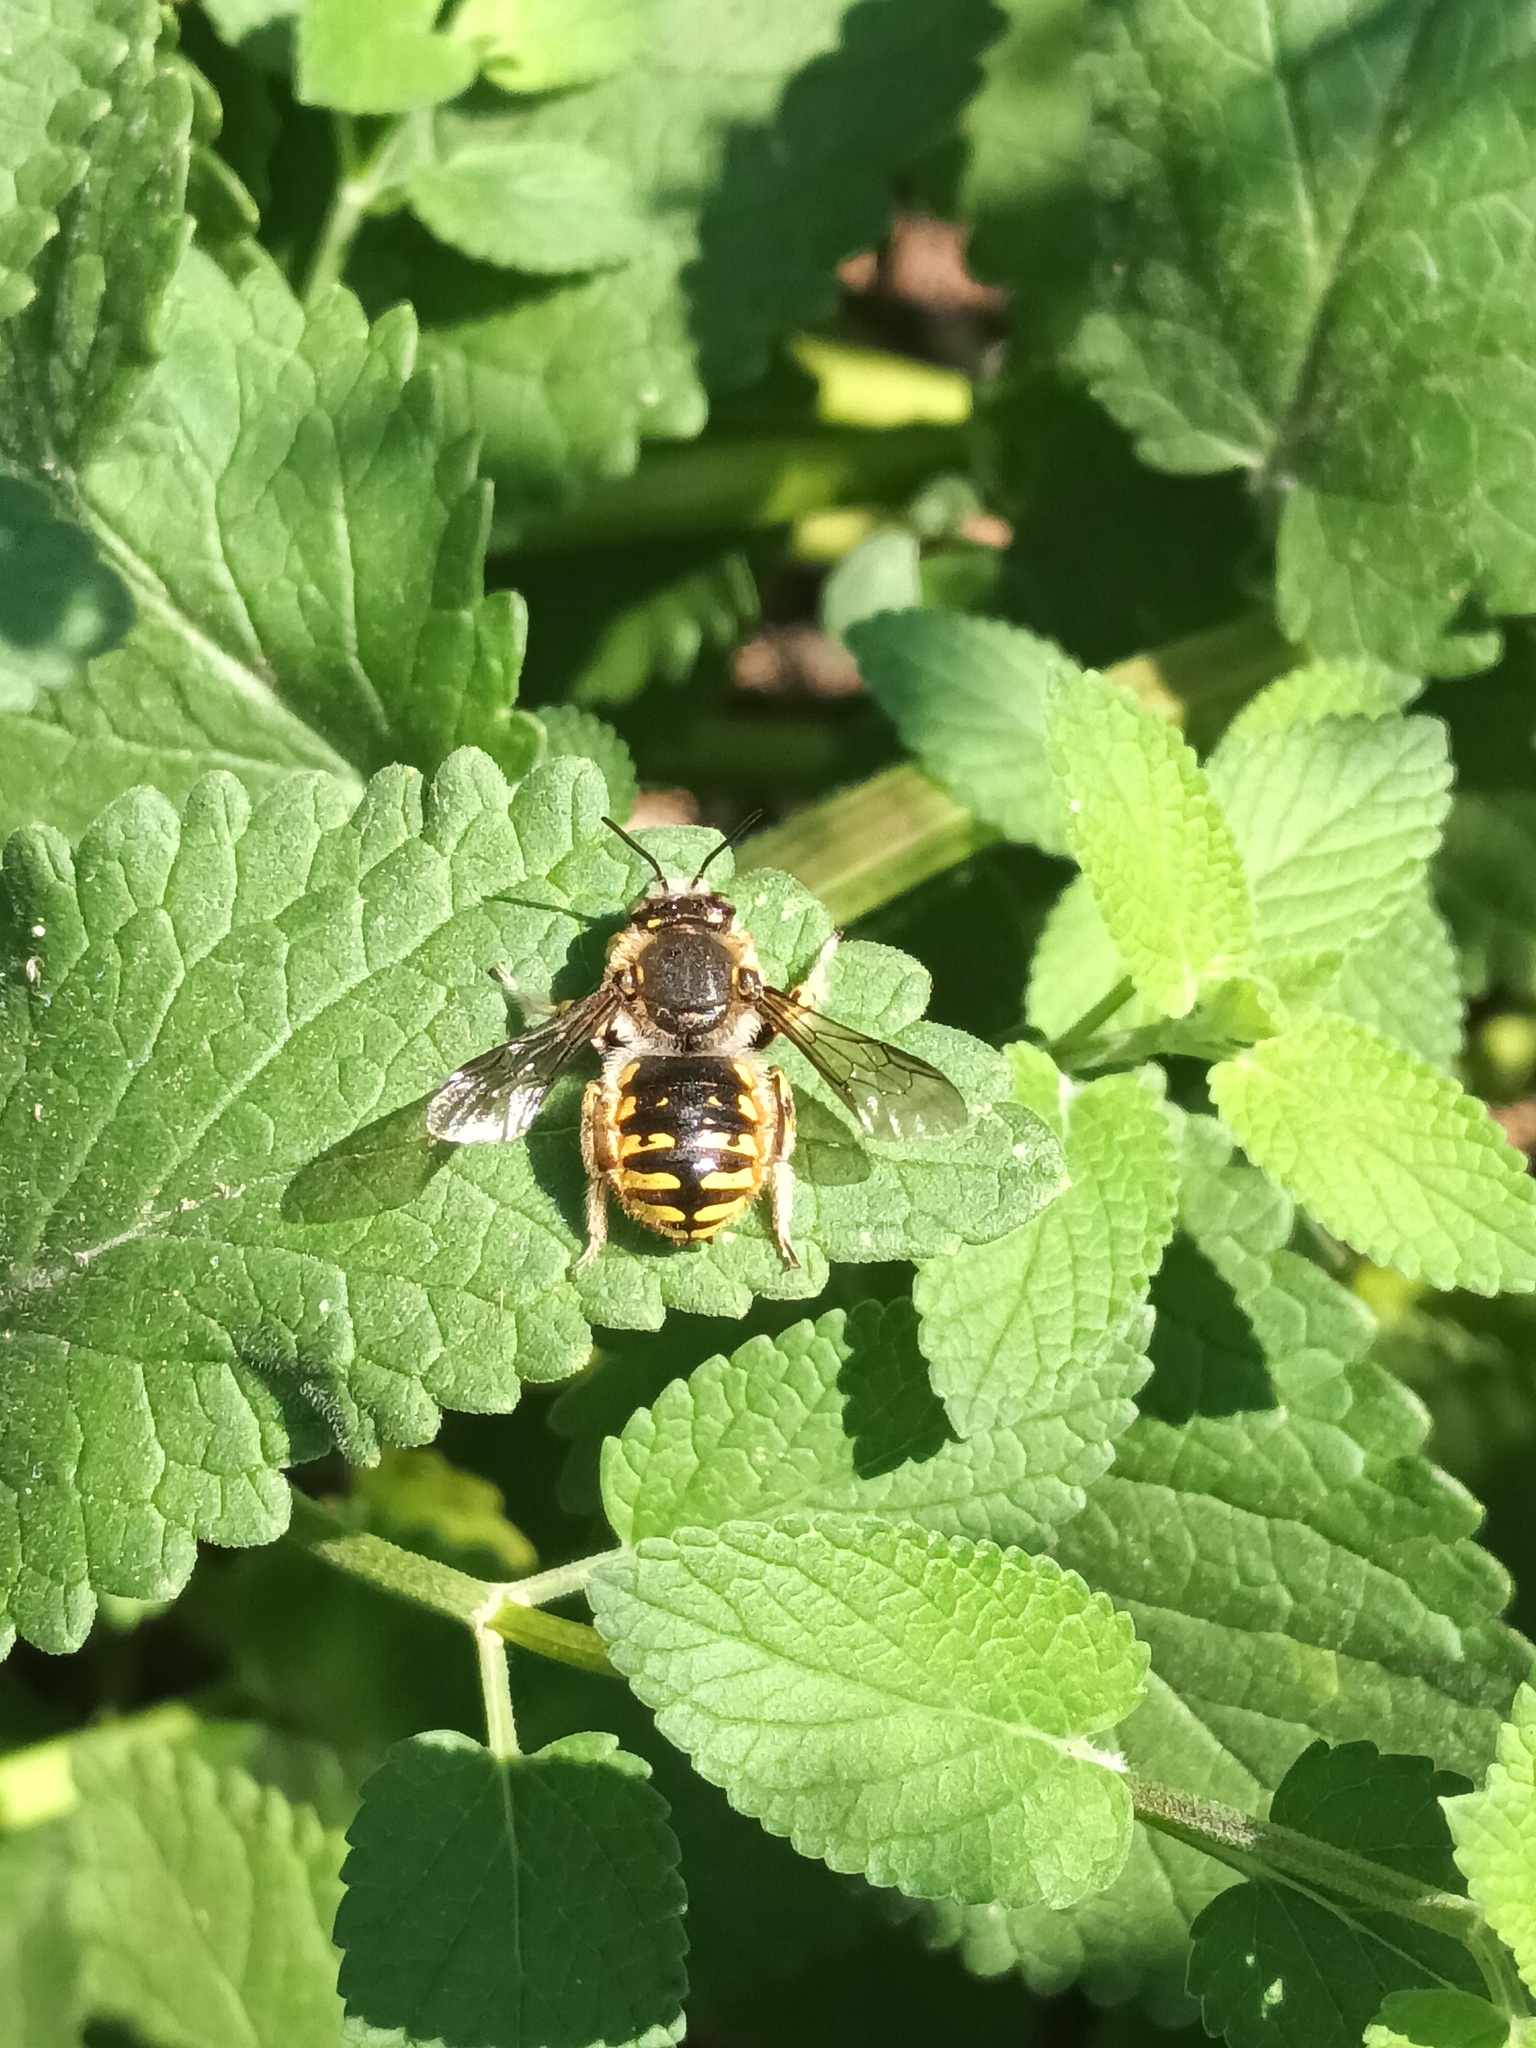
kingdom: Animalia
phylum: Arthropoda
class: Insecta
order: Hymenoptera
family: Megachilidae
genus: Anthidium
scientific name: Anthidium manicatum
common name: Wool carder bee
